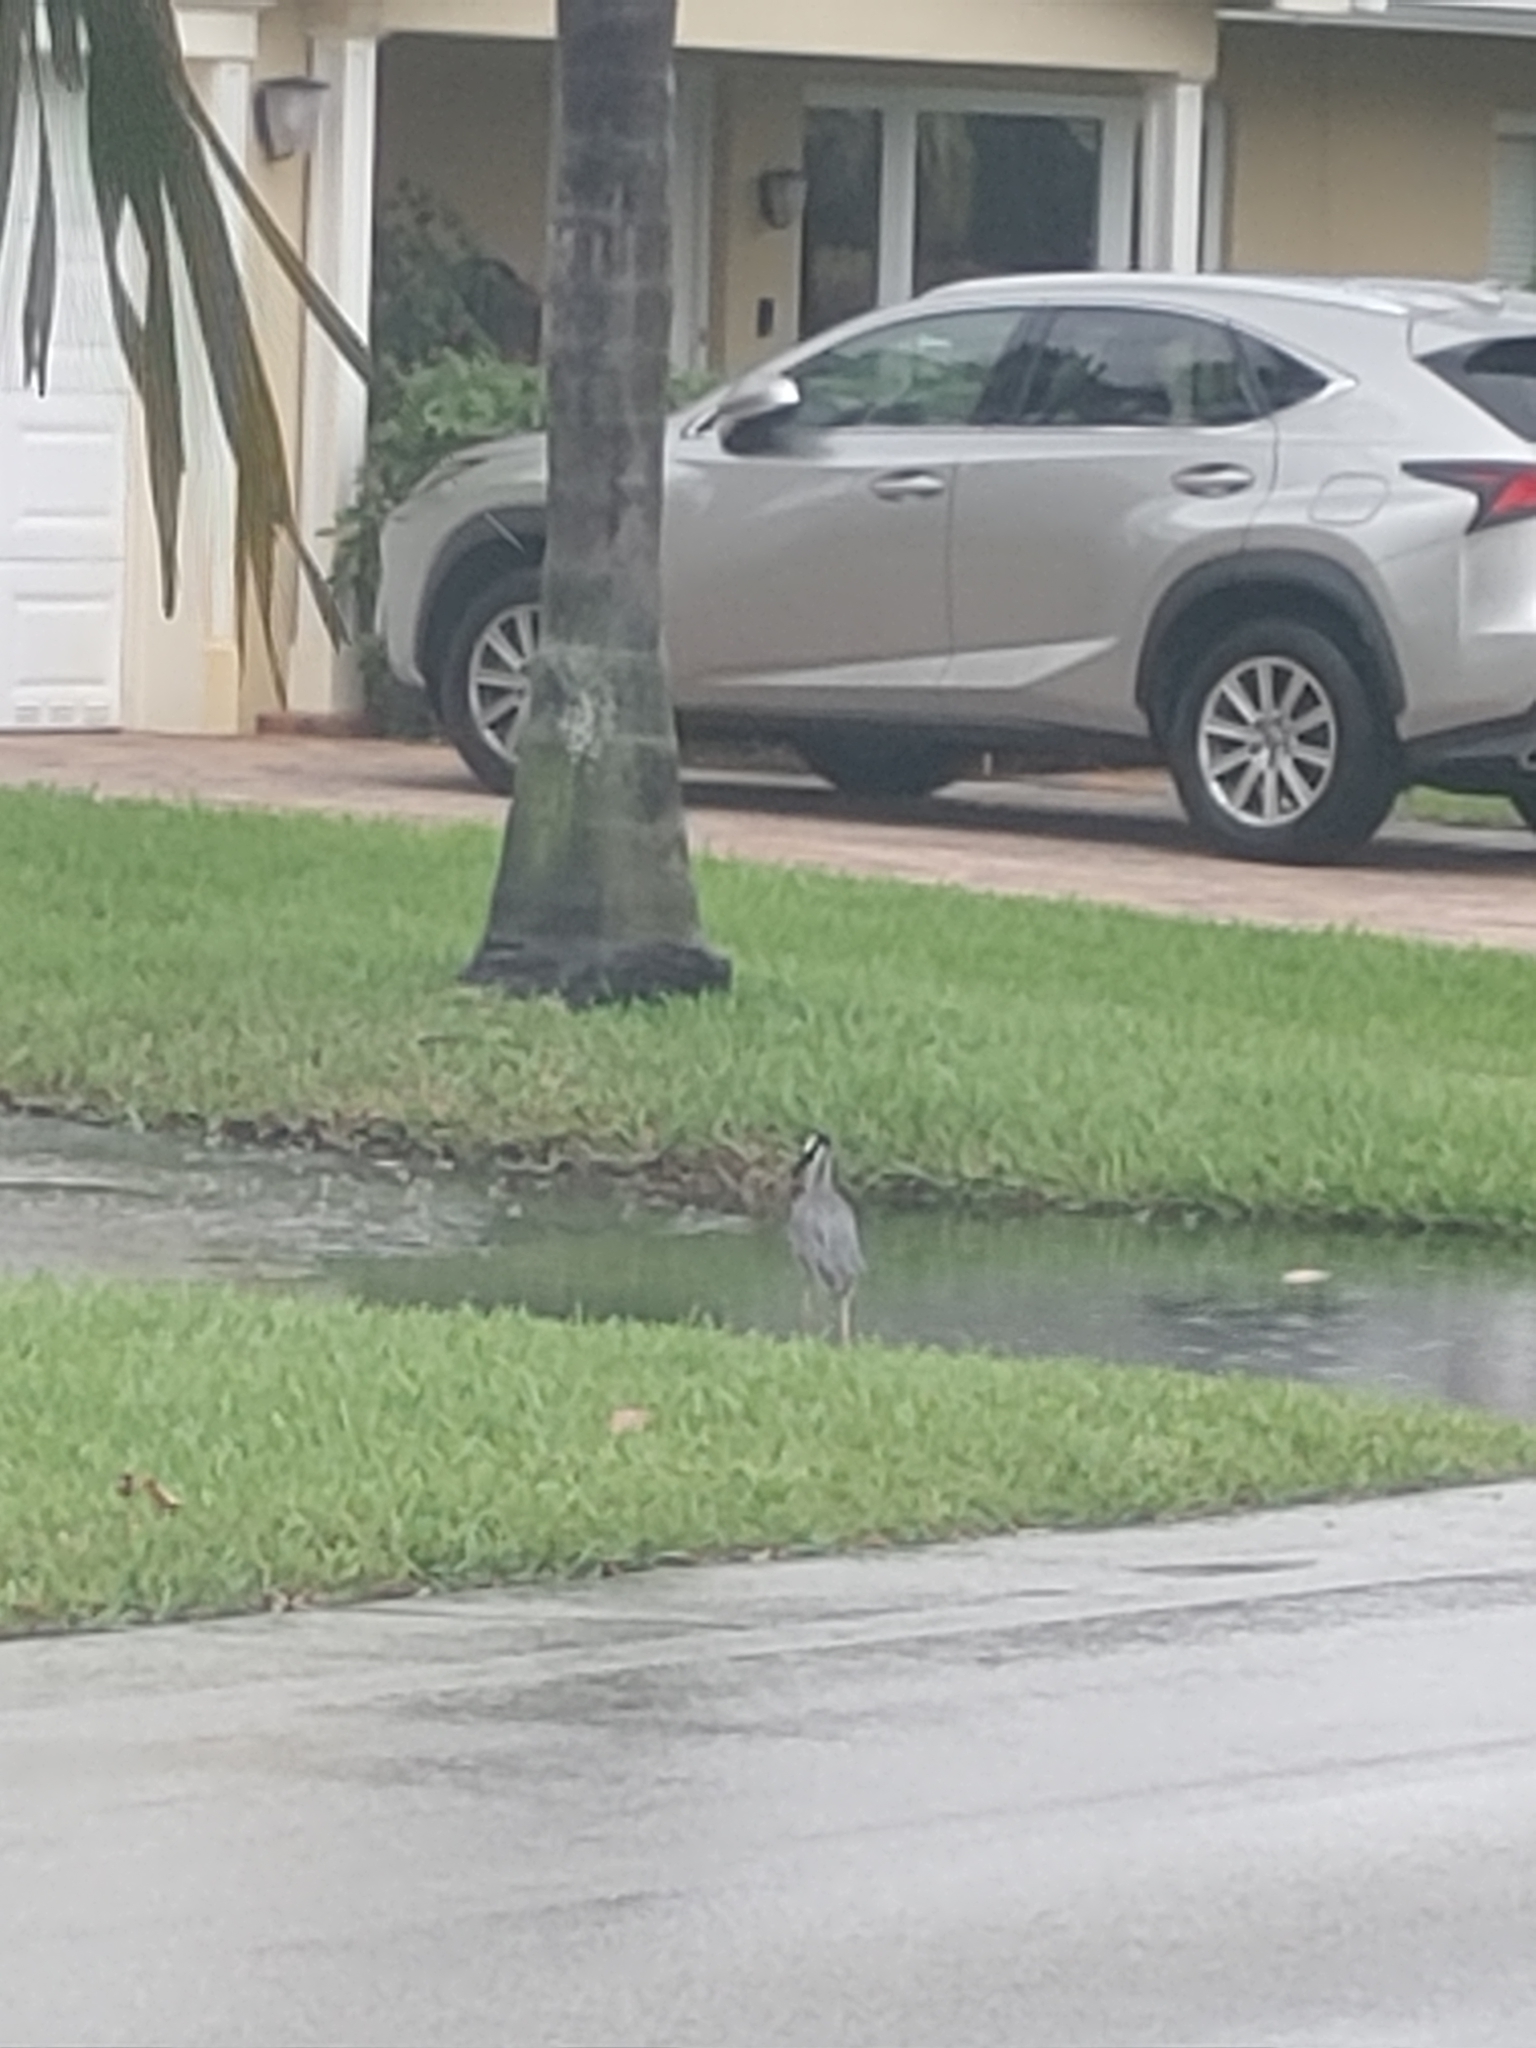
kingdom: Animalia
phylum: Chordata
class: Aves
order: Pelecaniformes
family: Ardeidae
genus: Nyctanassa
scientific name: Nyctanassa violacea
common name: Yellow-crowned night heron
